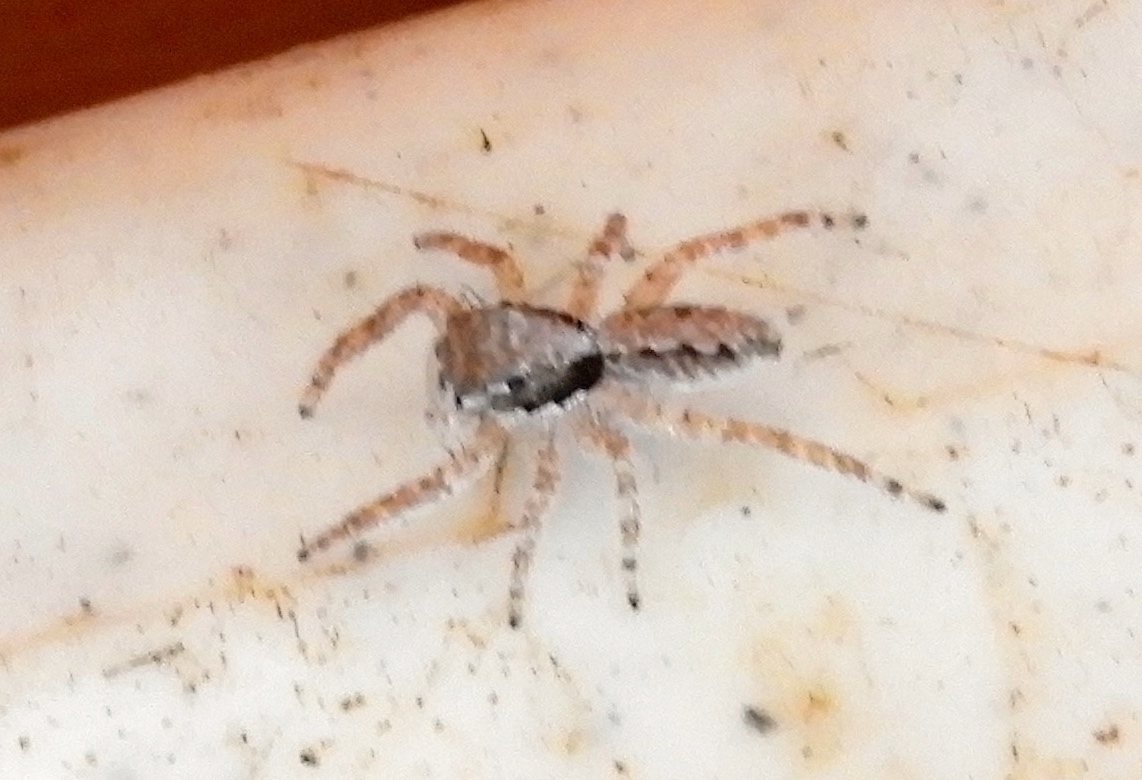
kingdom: Animalia
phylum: Arthropoda
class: Arachnida
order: Araneae
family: Salticidae
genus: Balmaceda
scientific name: Balmaceda
